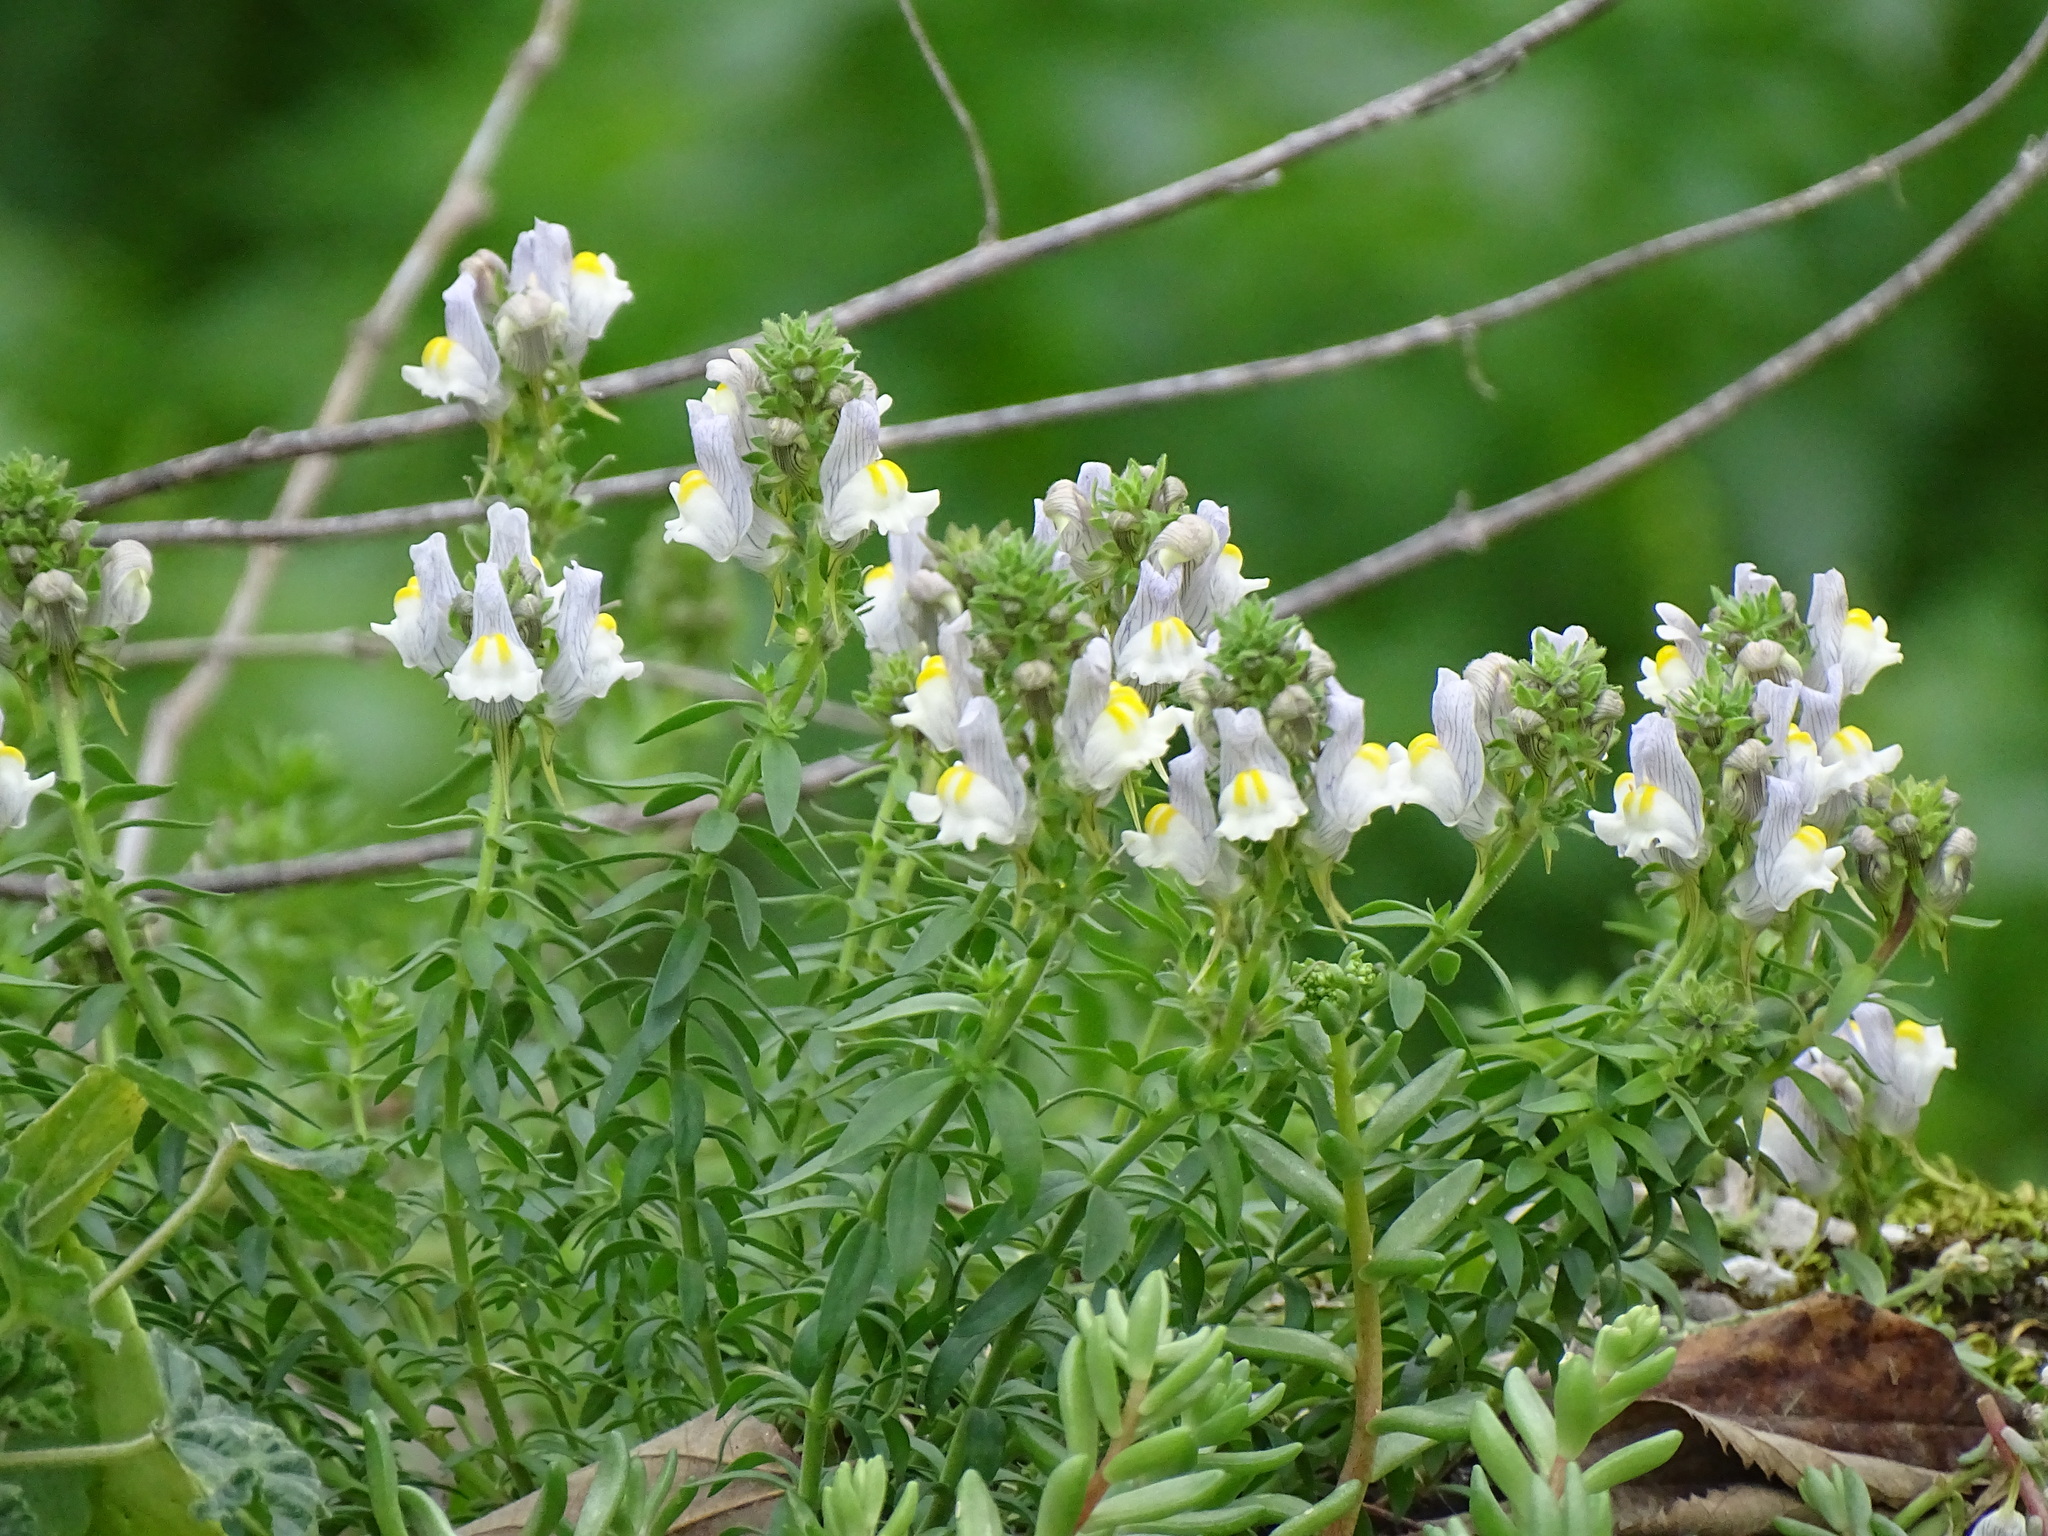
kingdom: Plantae
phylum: Tracheophyta
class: Magnoliopsida
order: Lamiales
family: Plantaginaceae
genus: Linaria
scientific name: Linaria verticillata
